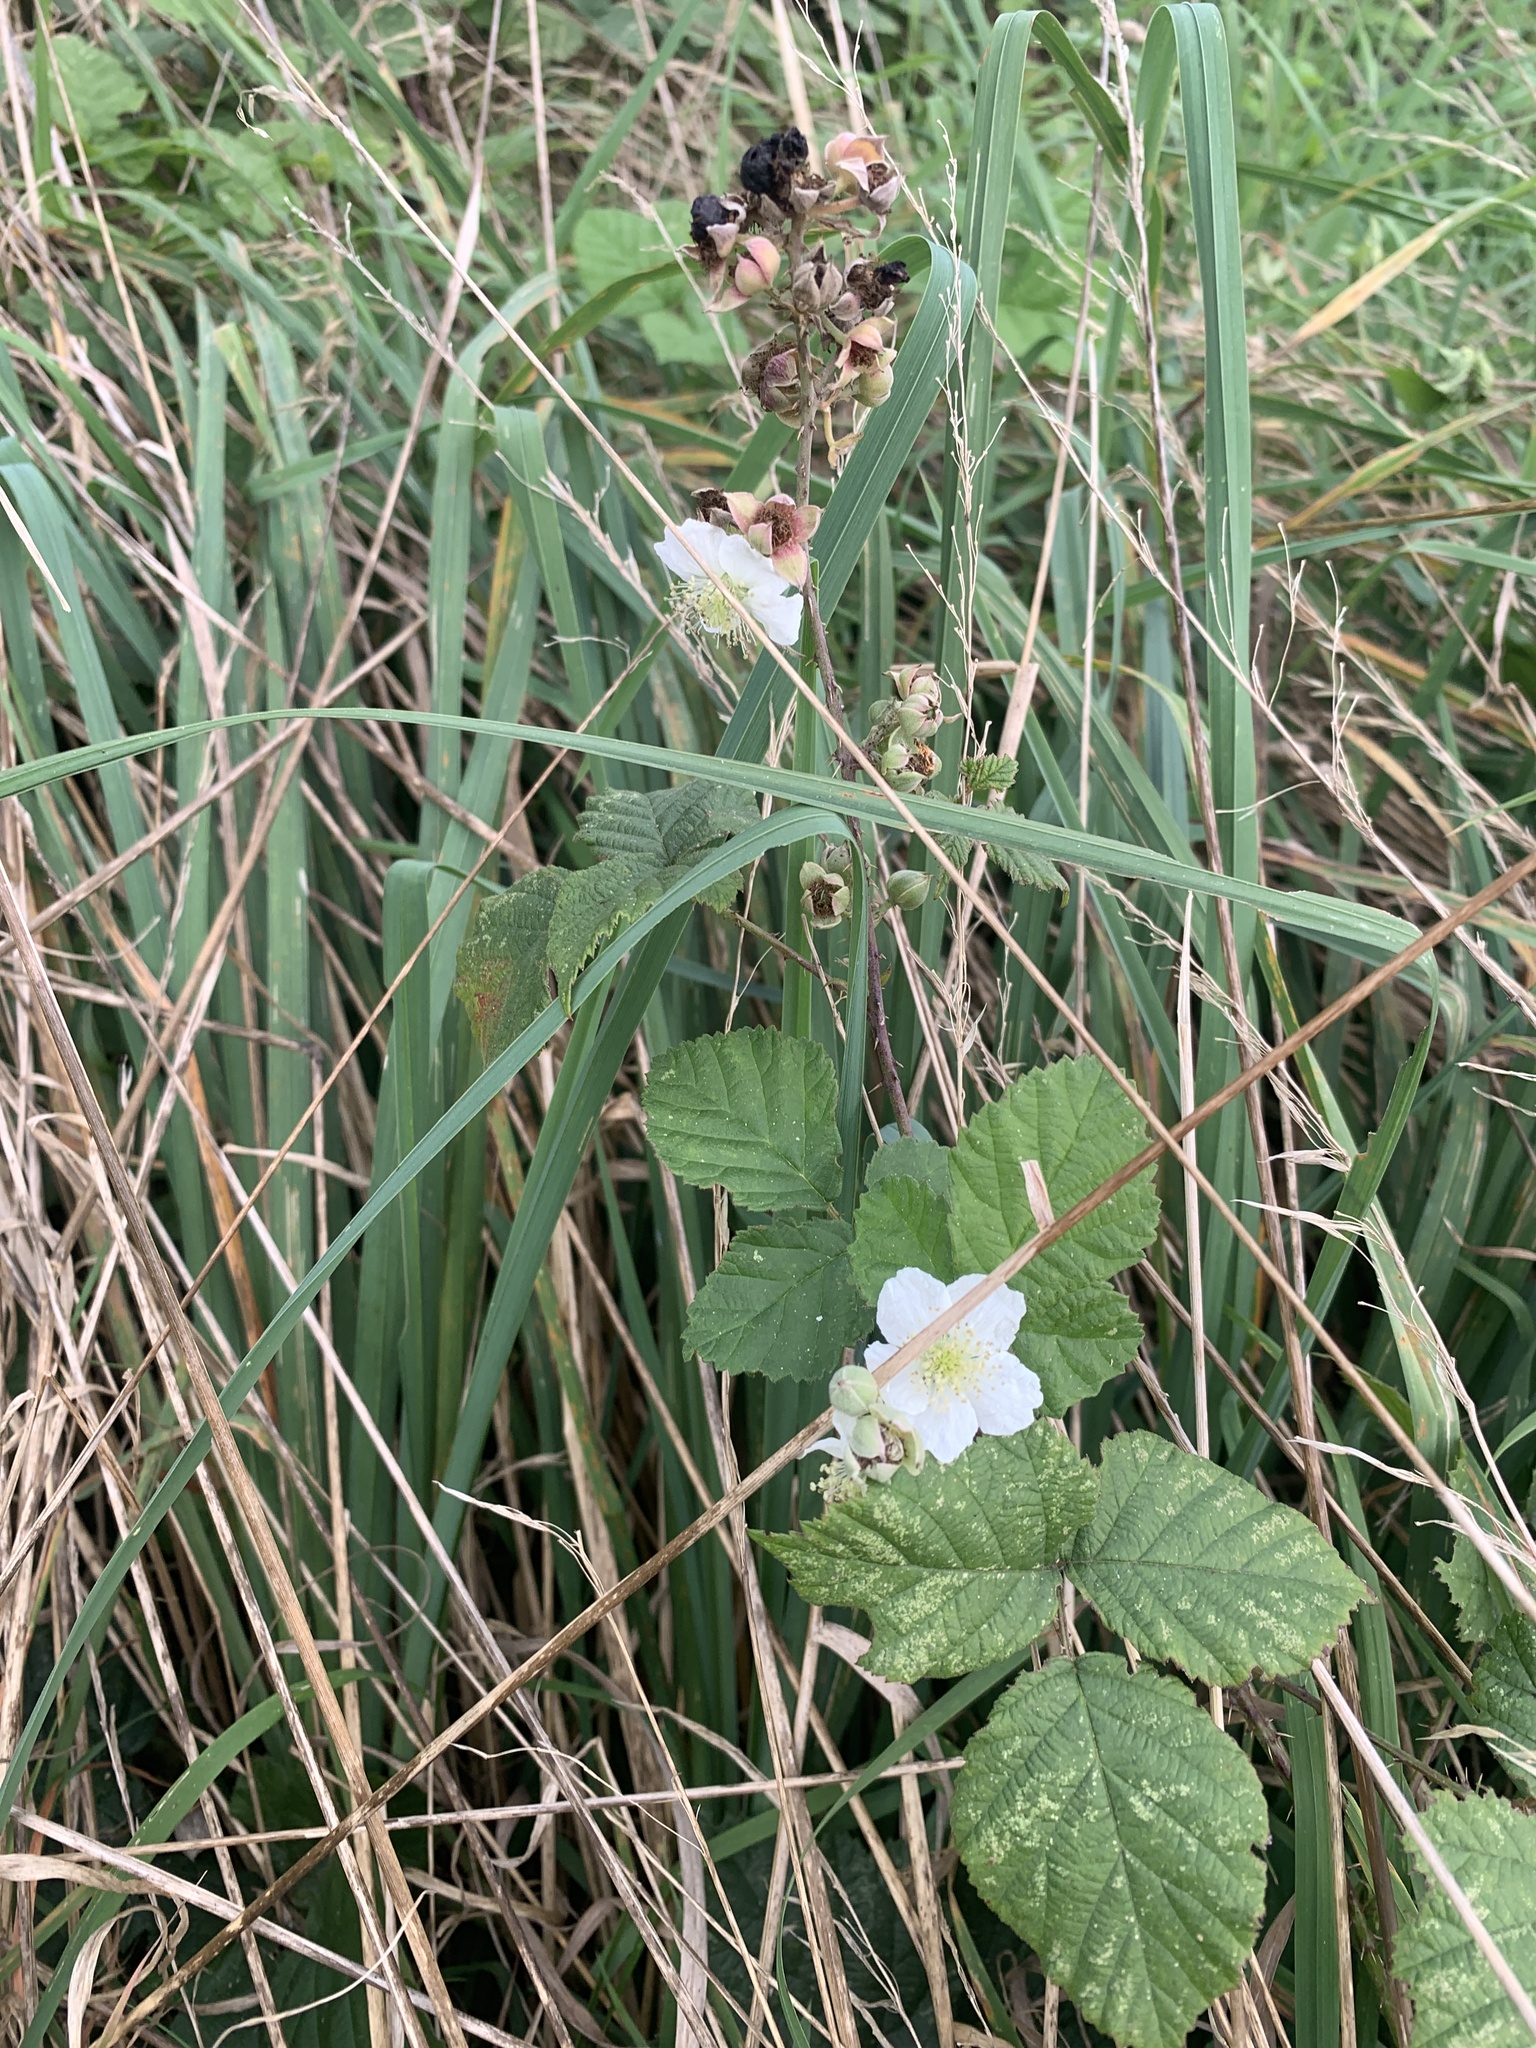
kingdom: Plantae
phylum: Tracheophyta
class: Magnoliopsida
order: Rosales
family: Rosaceae
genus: Rubus
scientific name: Rubus fruticosus
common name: Blackberry, bramble
